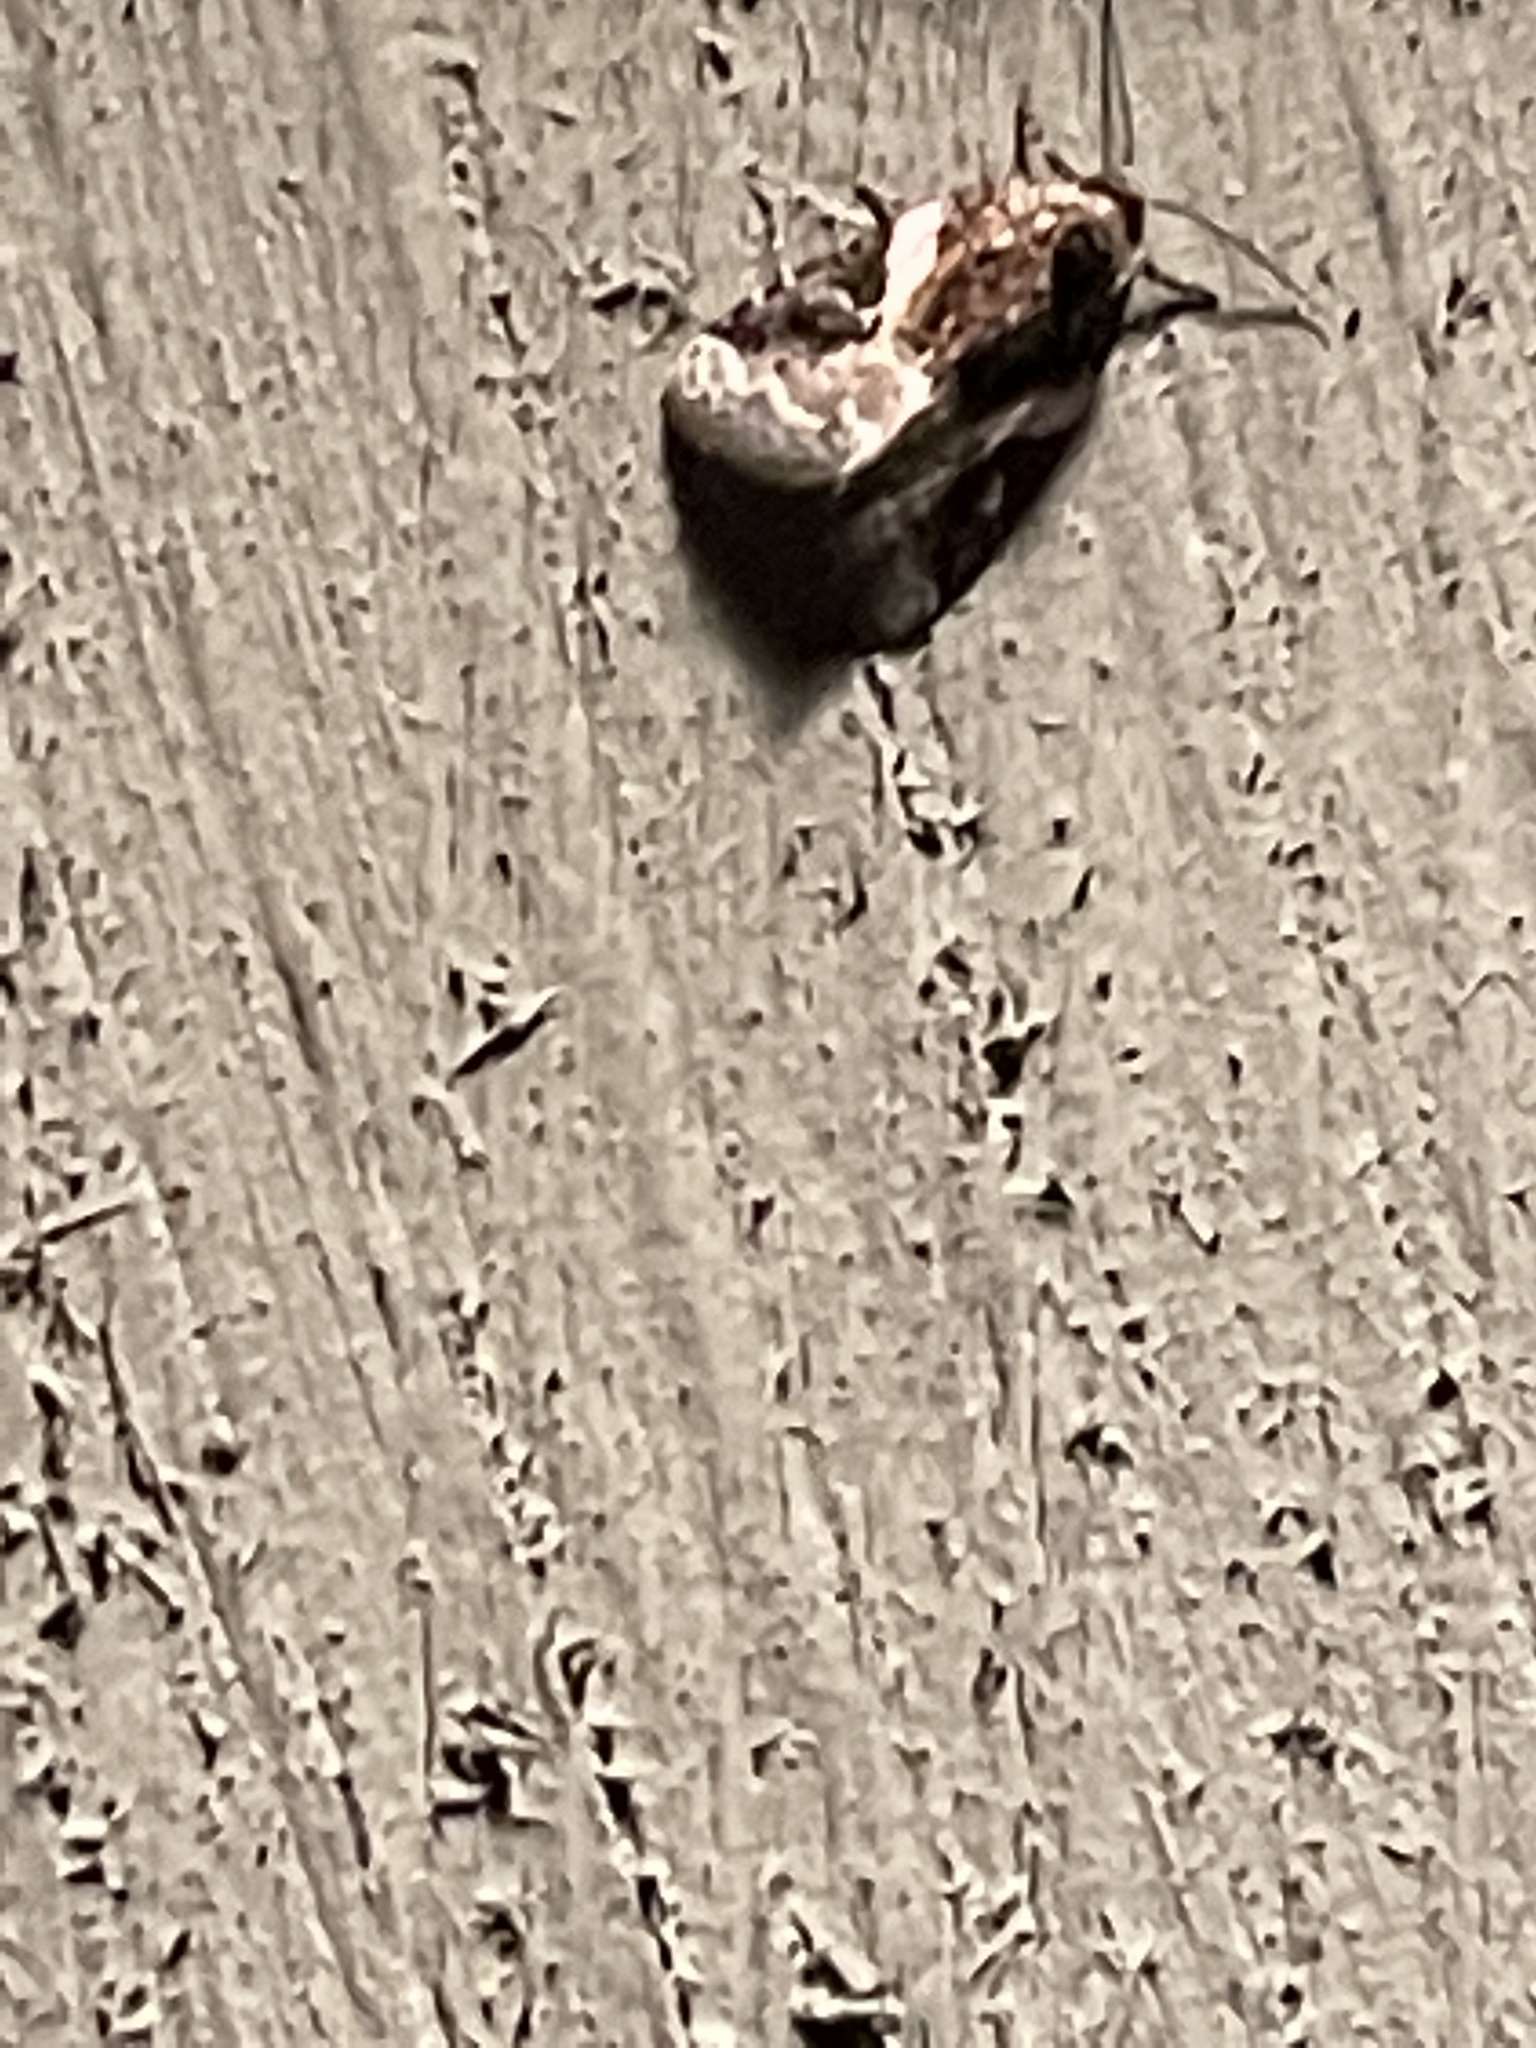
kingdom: Animalia
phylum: Arthropoda
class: Insecta
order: Lepidoptera
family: Noctuidae
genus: Pseudeustrotia
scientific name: Pseudeustrotia carneola
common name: Pink-barred lithacodia moth
